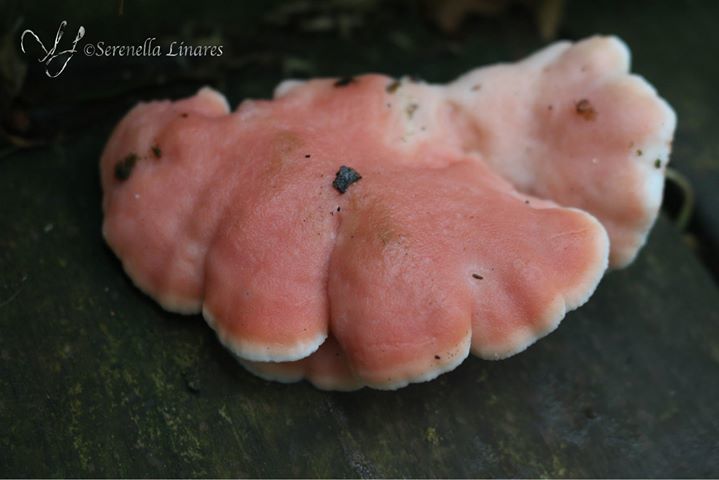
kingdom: Fungi
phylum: Basidiomycota
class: Agaricomycetes
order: Polyporales
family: Irpicaceae
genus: Byssomerulius
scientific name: Byssomerulius incarnatus
